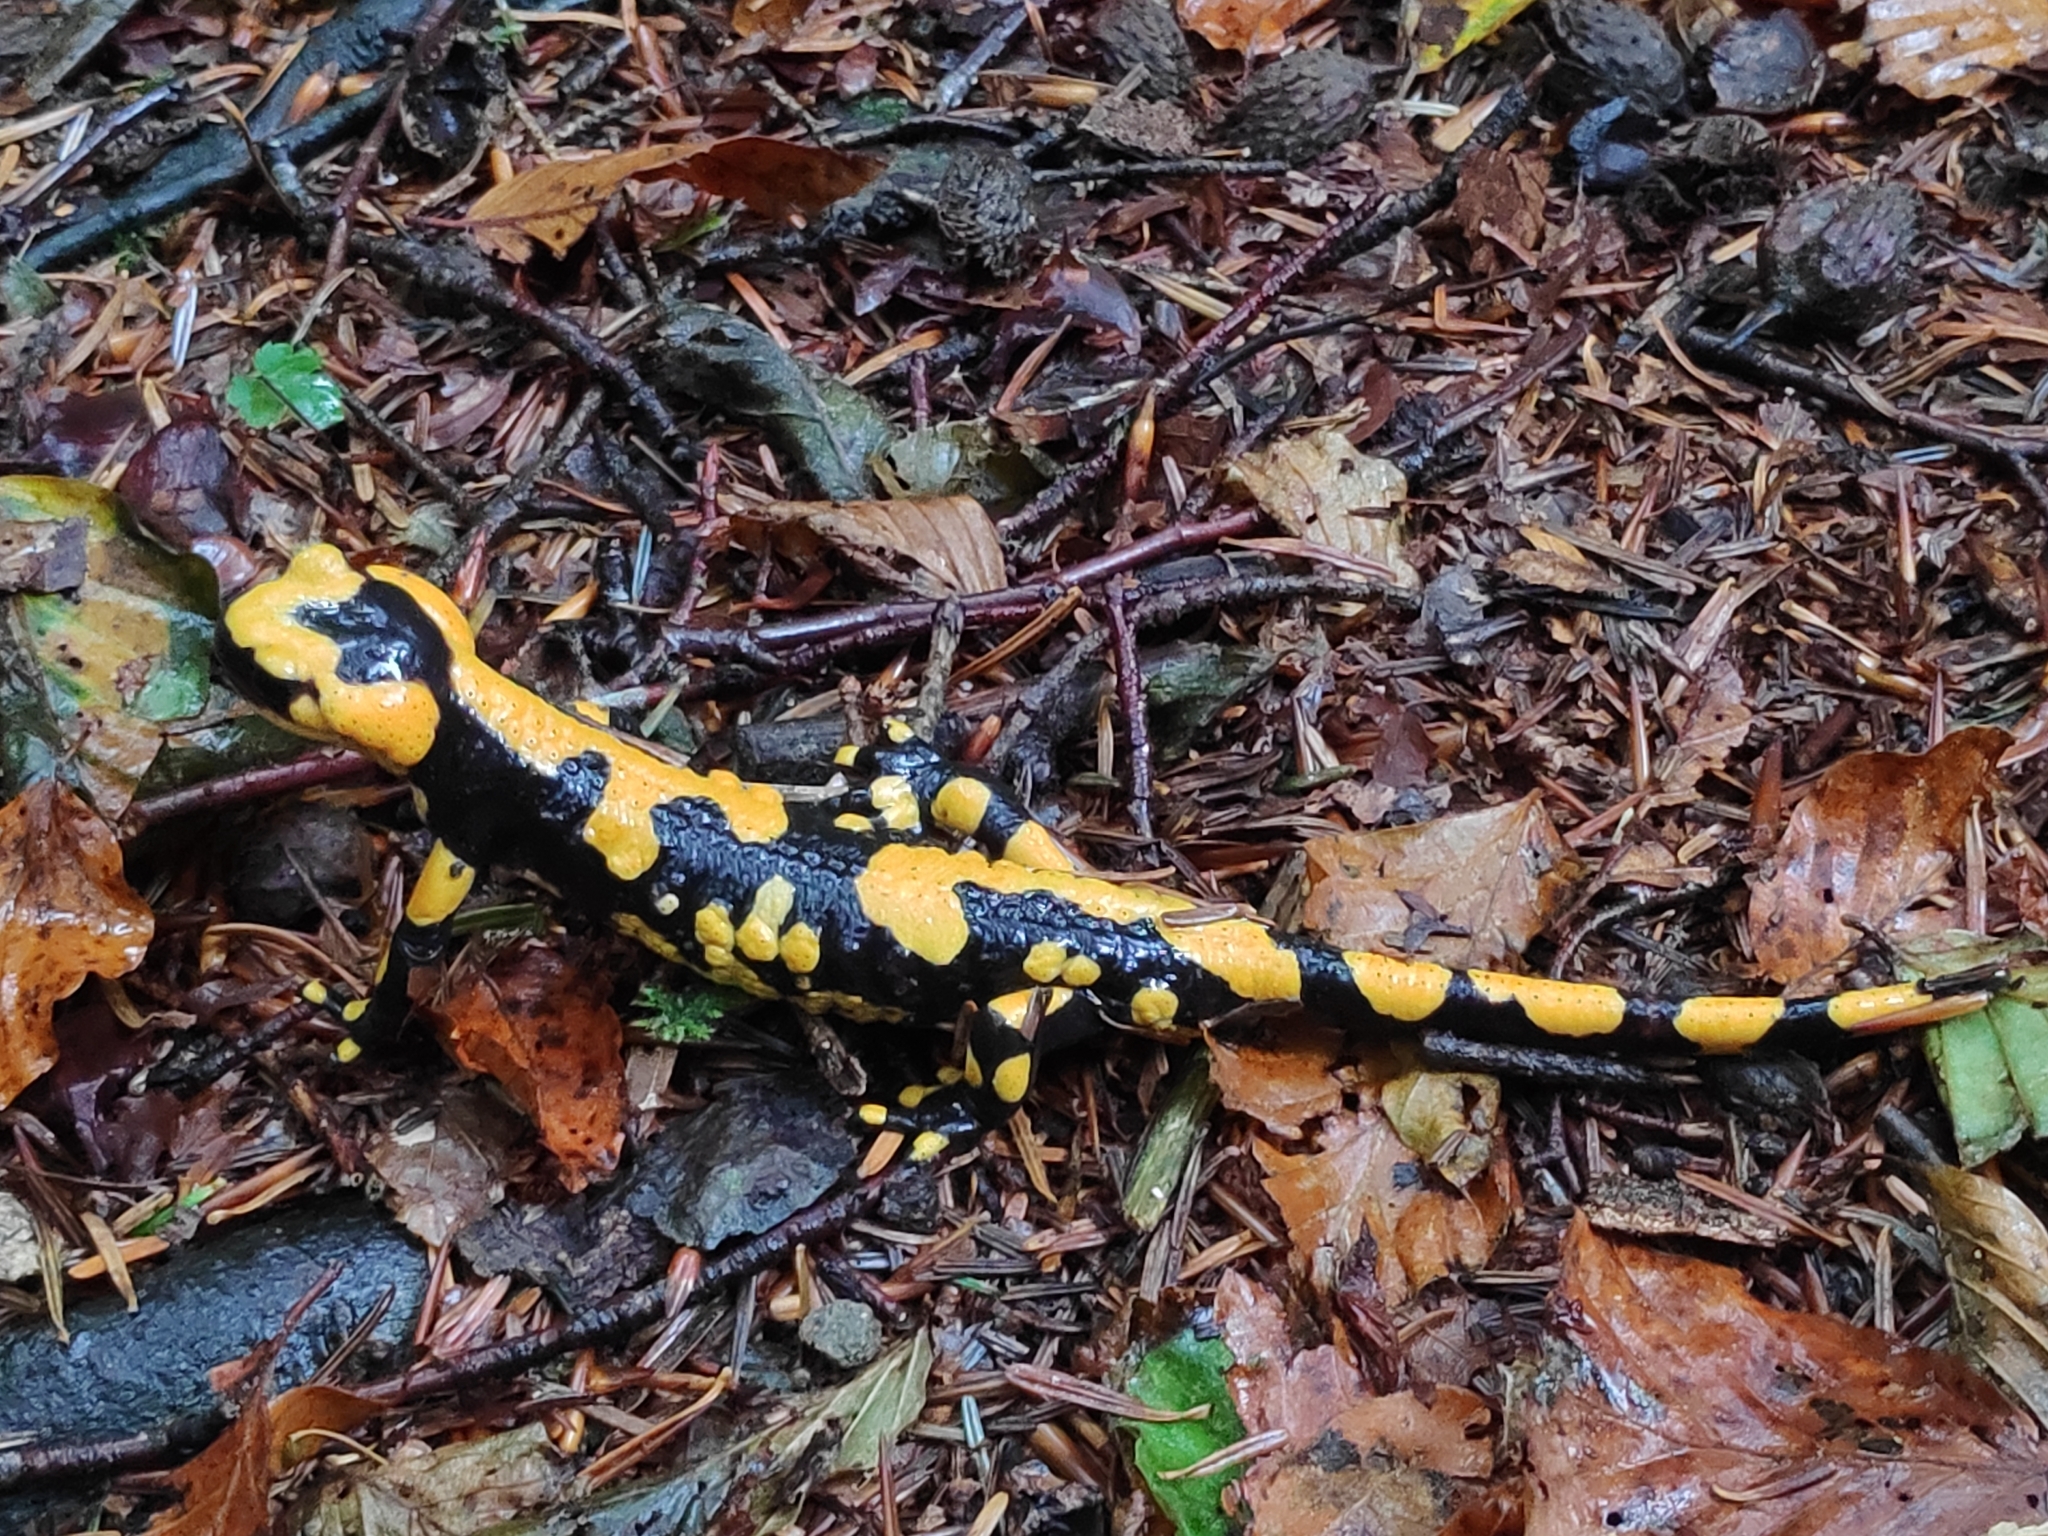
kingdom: Animalia
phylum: Chordata
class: Amphibia
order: Caudata
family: Salamandridae
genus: Salamandra
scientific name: Salamandra salamandra
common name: Fire salamander
